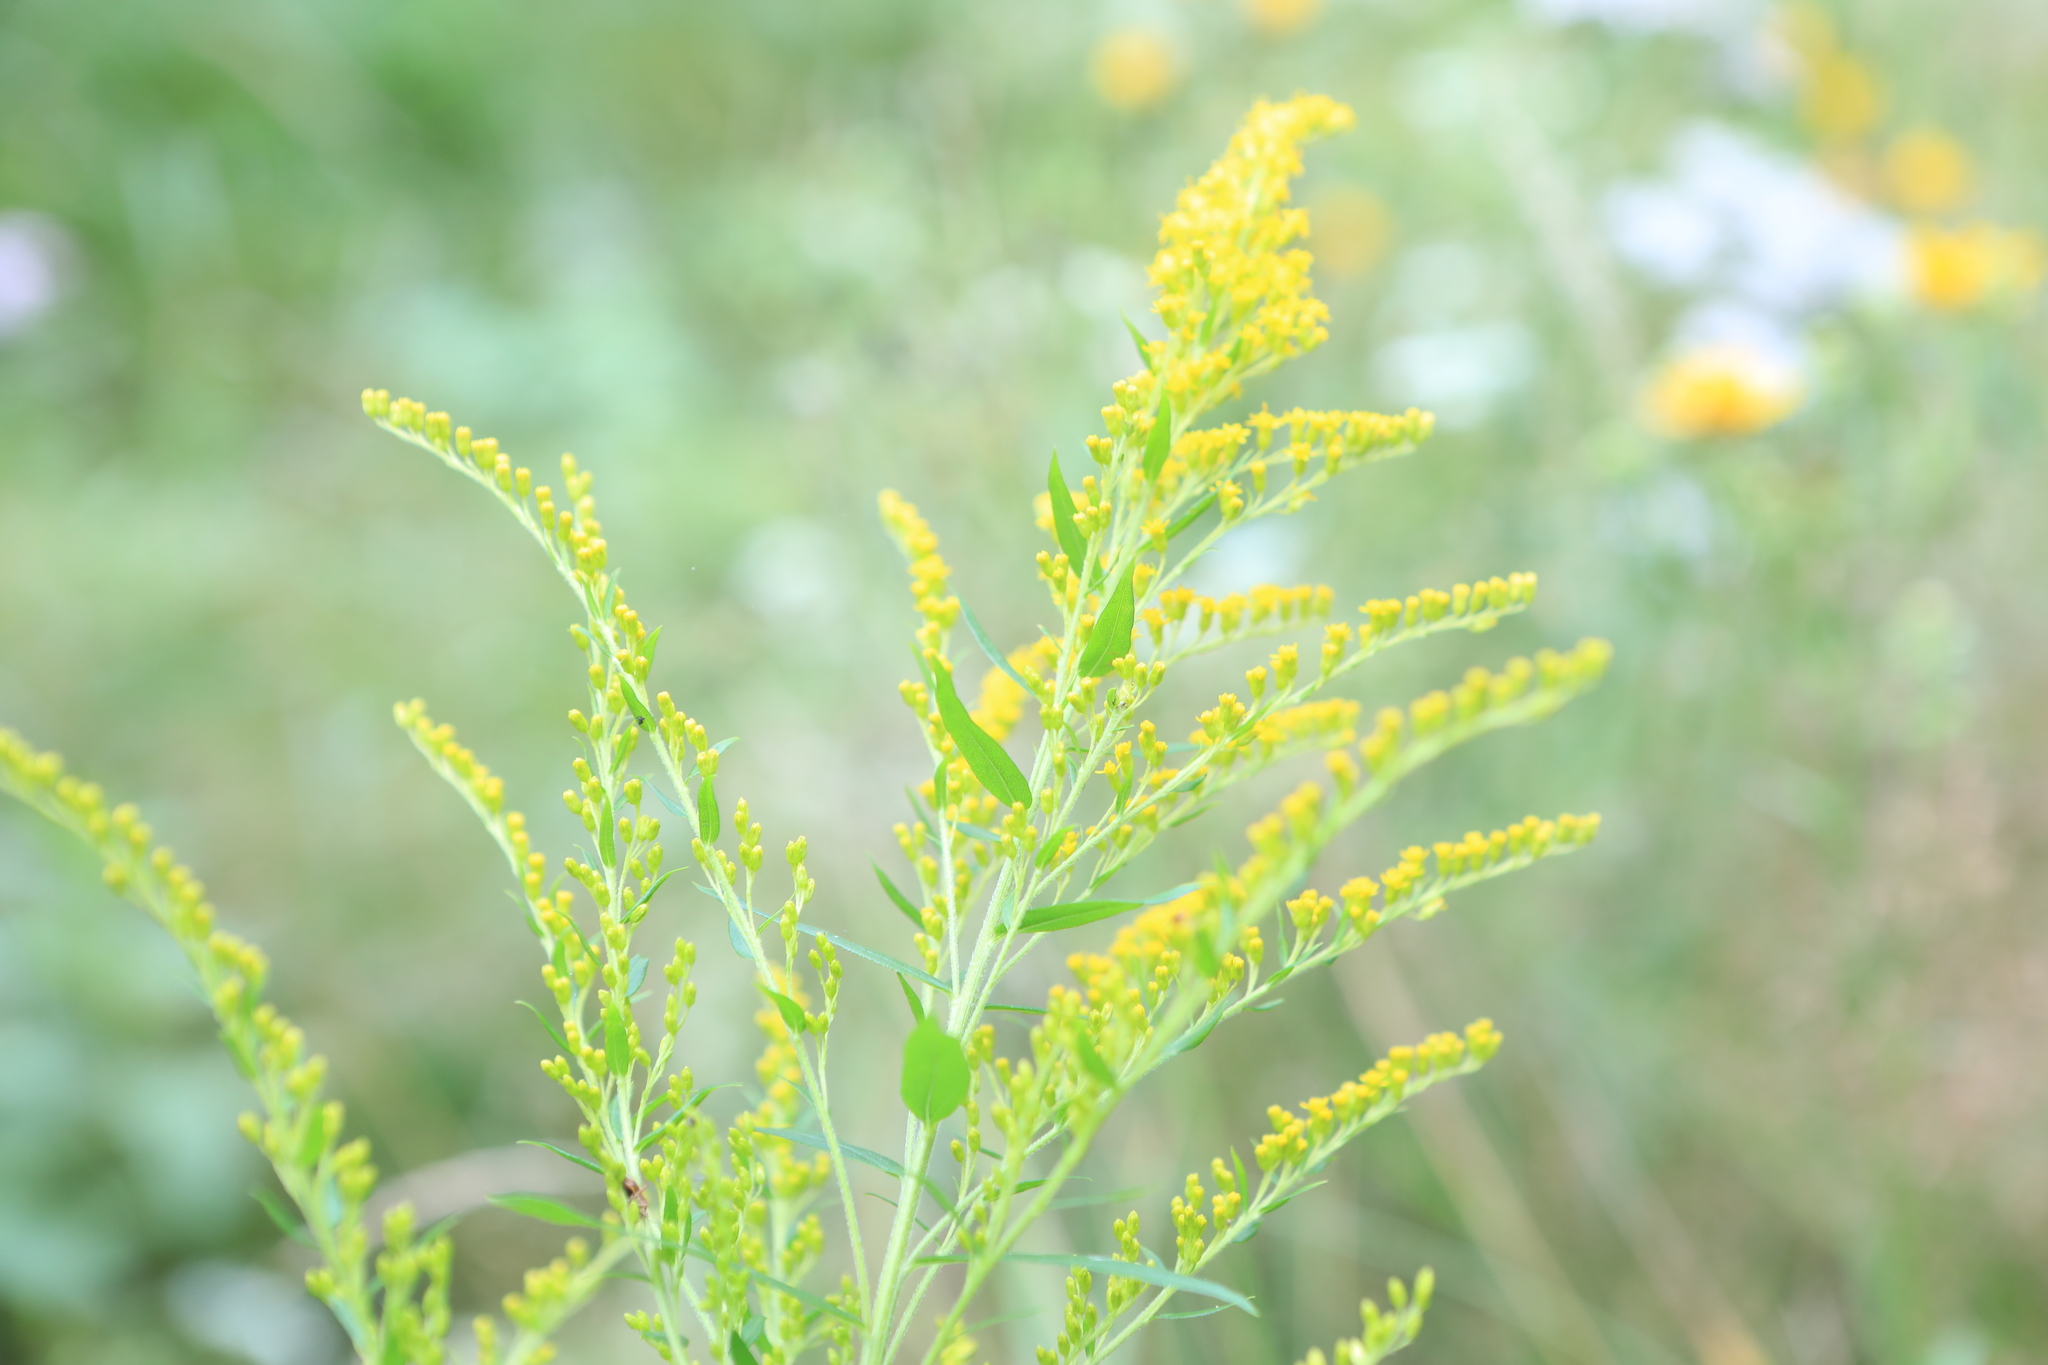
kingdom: Plantae
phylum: Tracheophyta
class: Magnoliopsida
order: Asterales
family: Asteraceae
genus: Solidago
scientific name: Solidago canadensis
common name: Canada goldenrod
